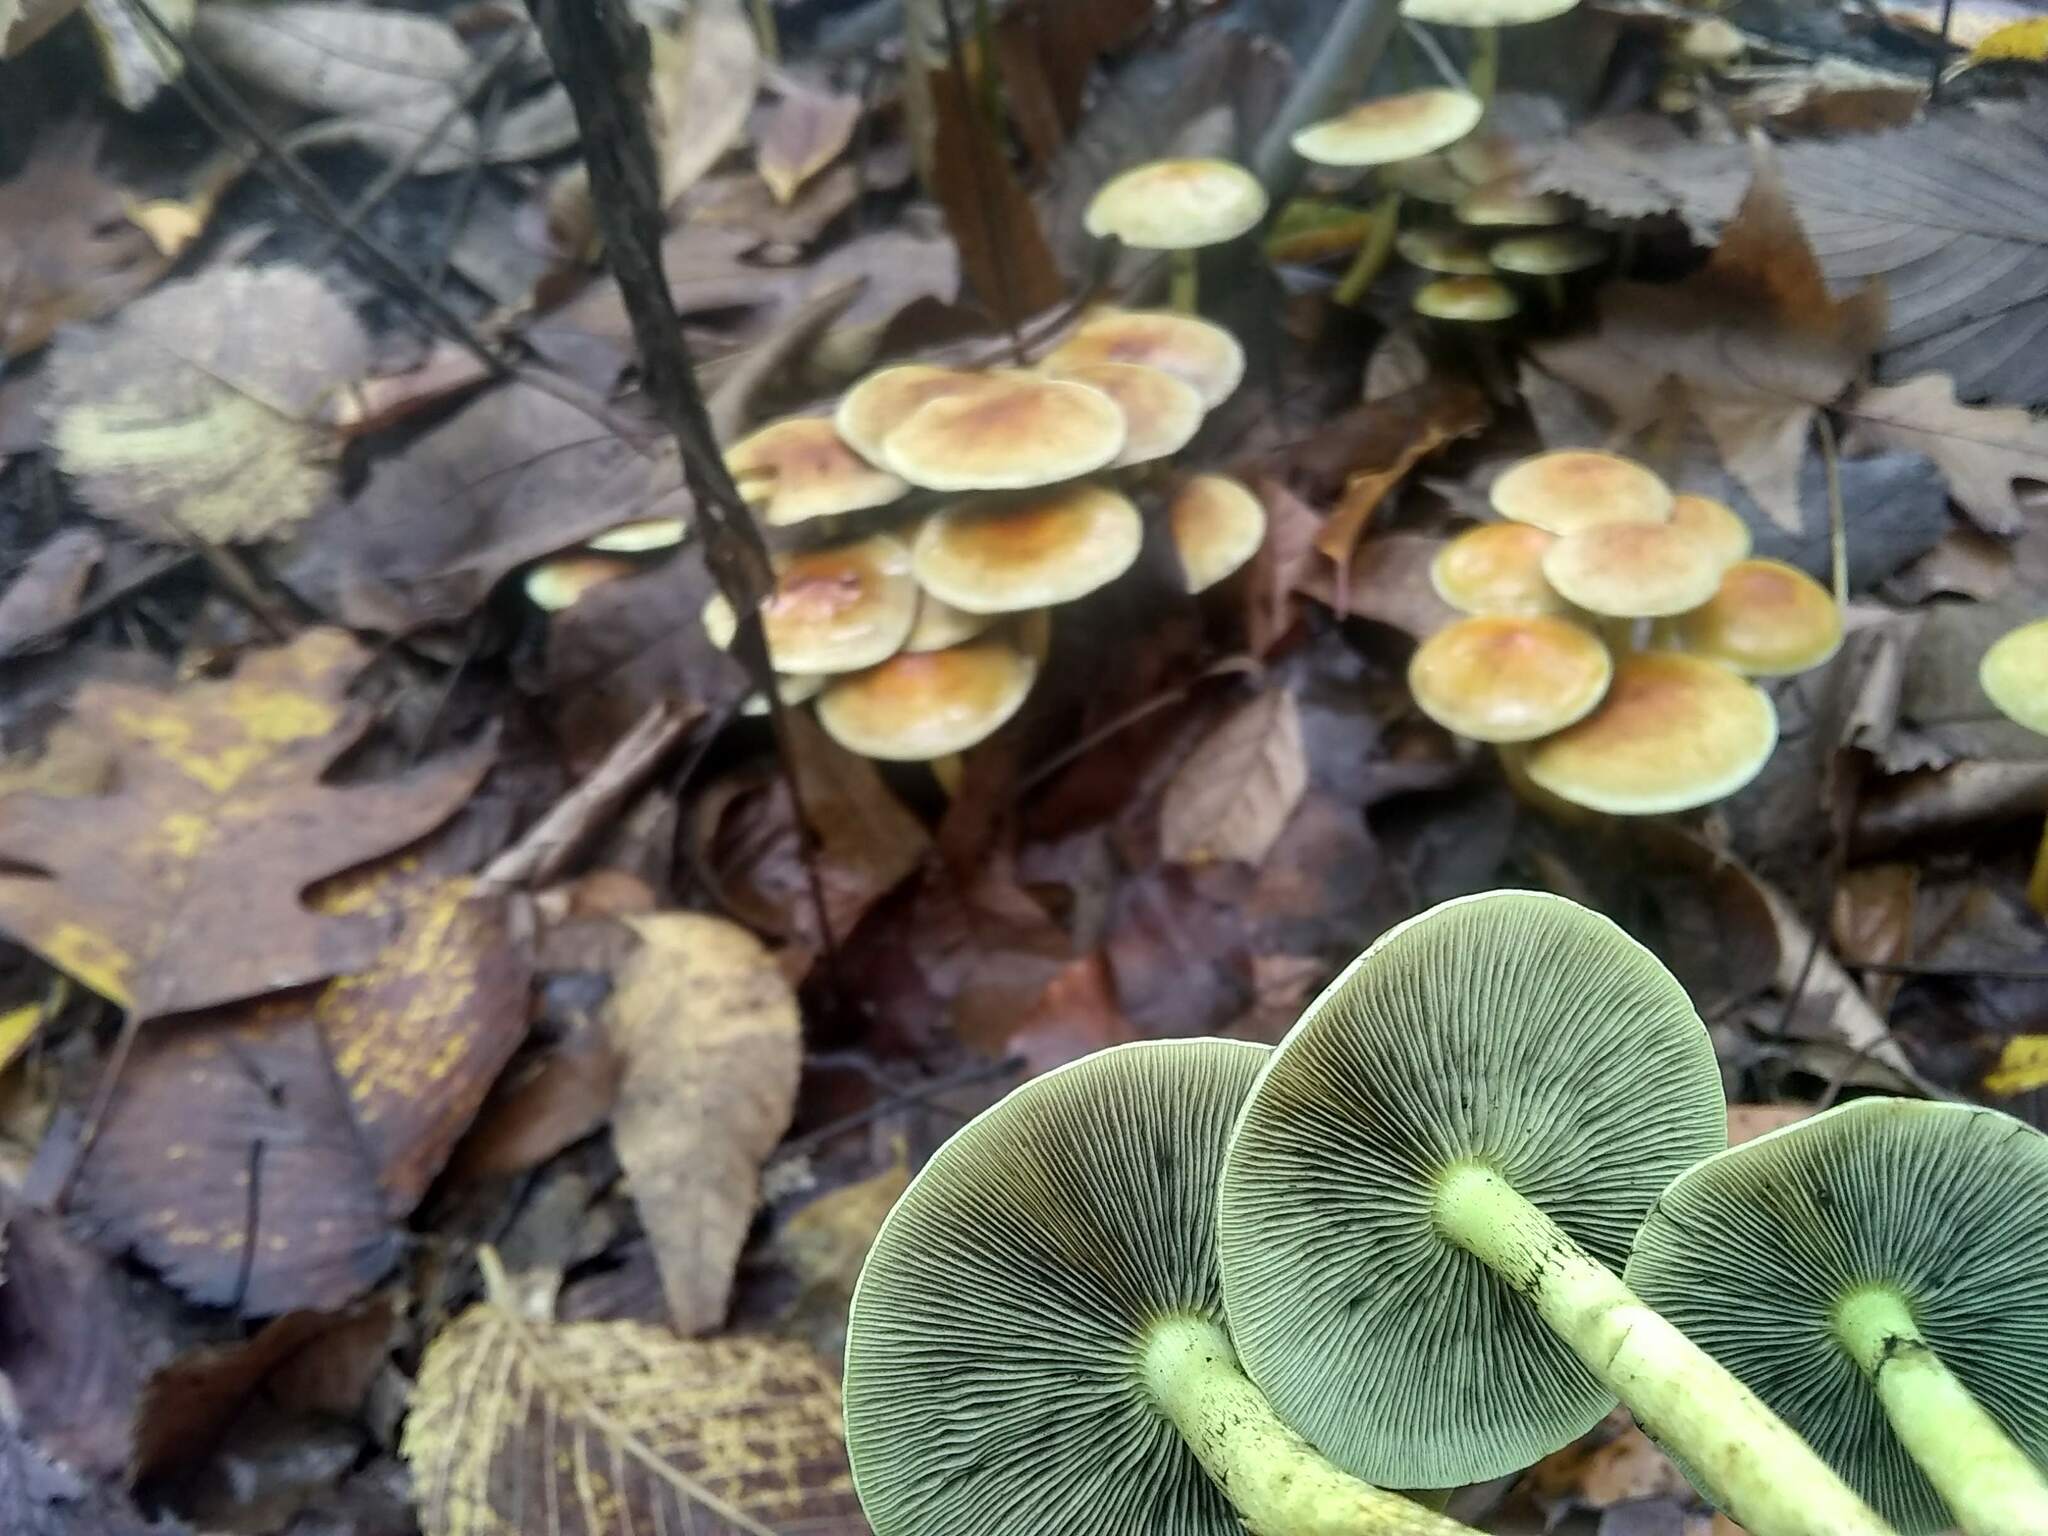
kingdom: Fungi
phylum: Basidiomycota
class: Agaricomycetes
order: Agaricales
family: Strophariaceae
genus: Hypholoma
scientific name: Hypholoma fasciculare
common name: Sulphur tuft
